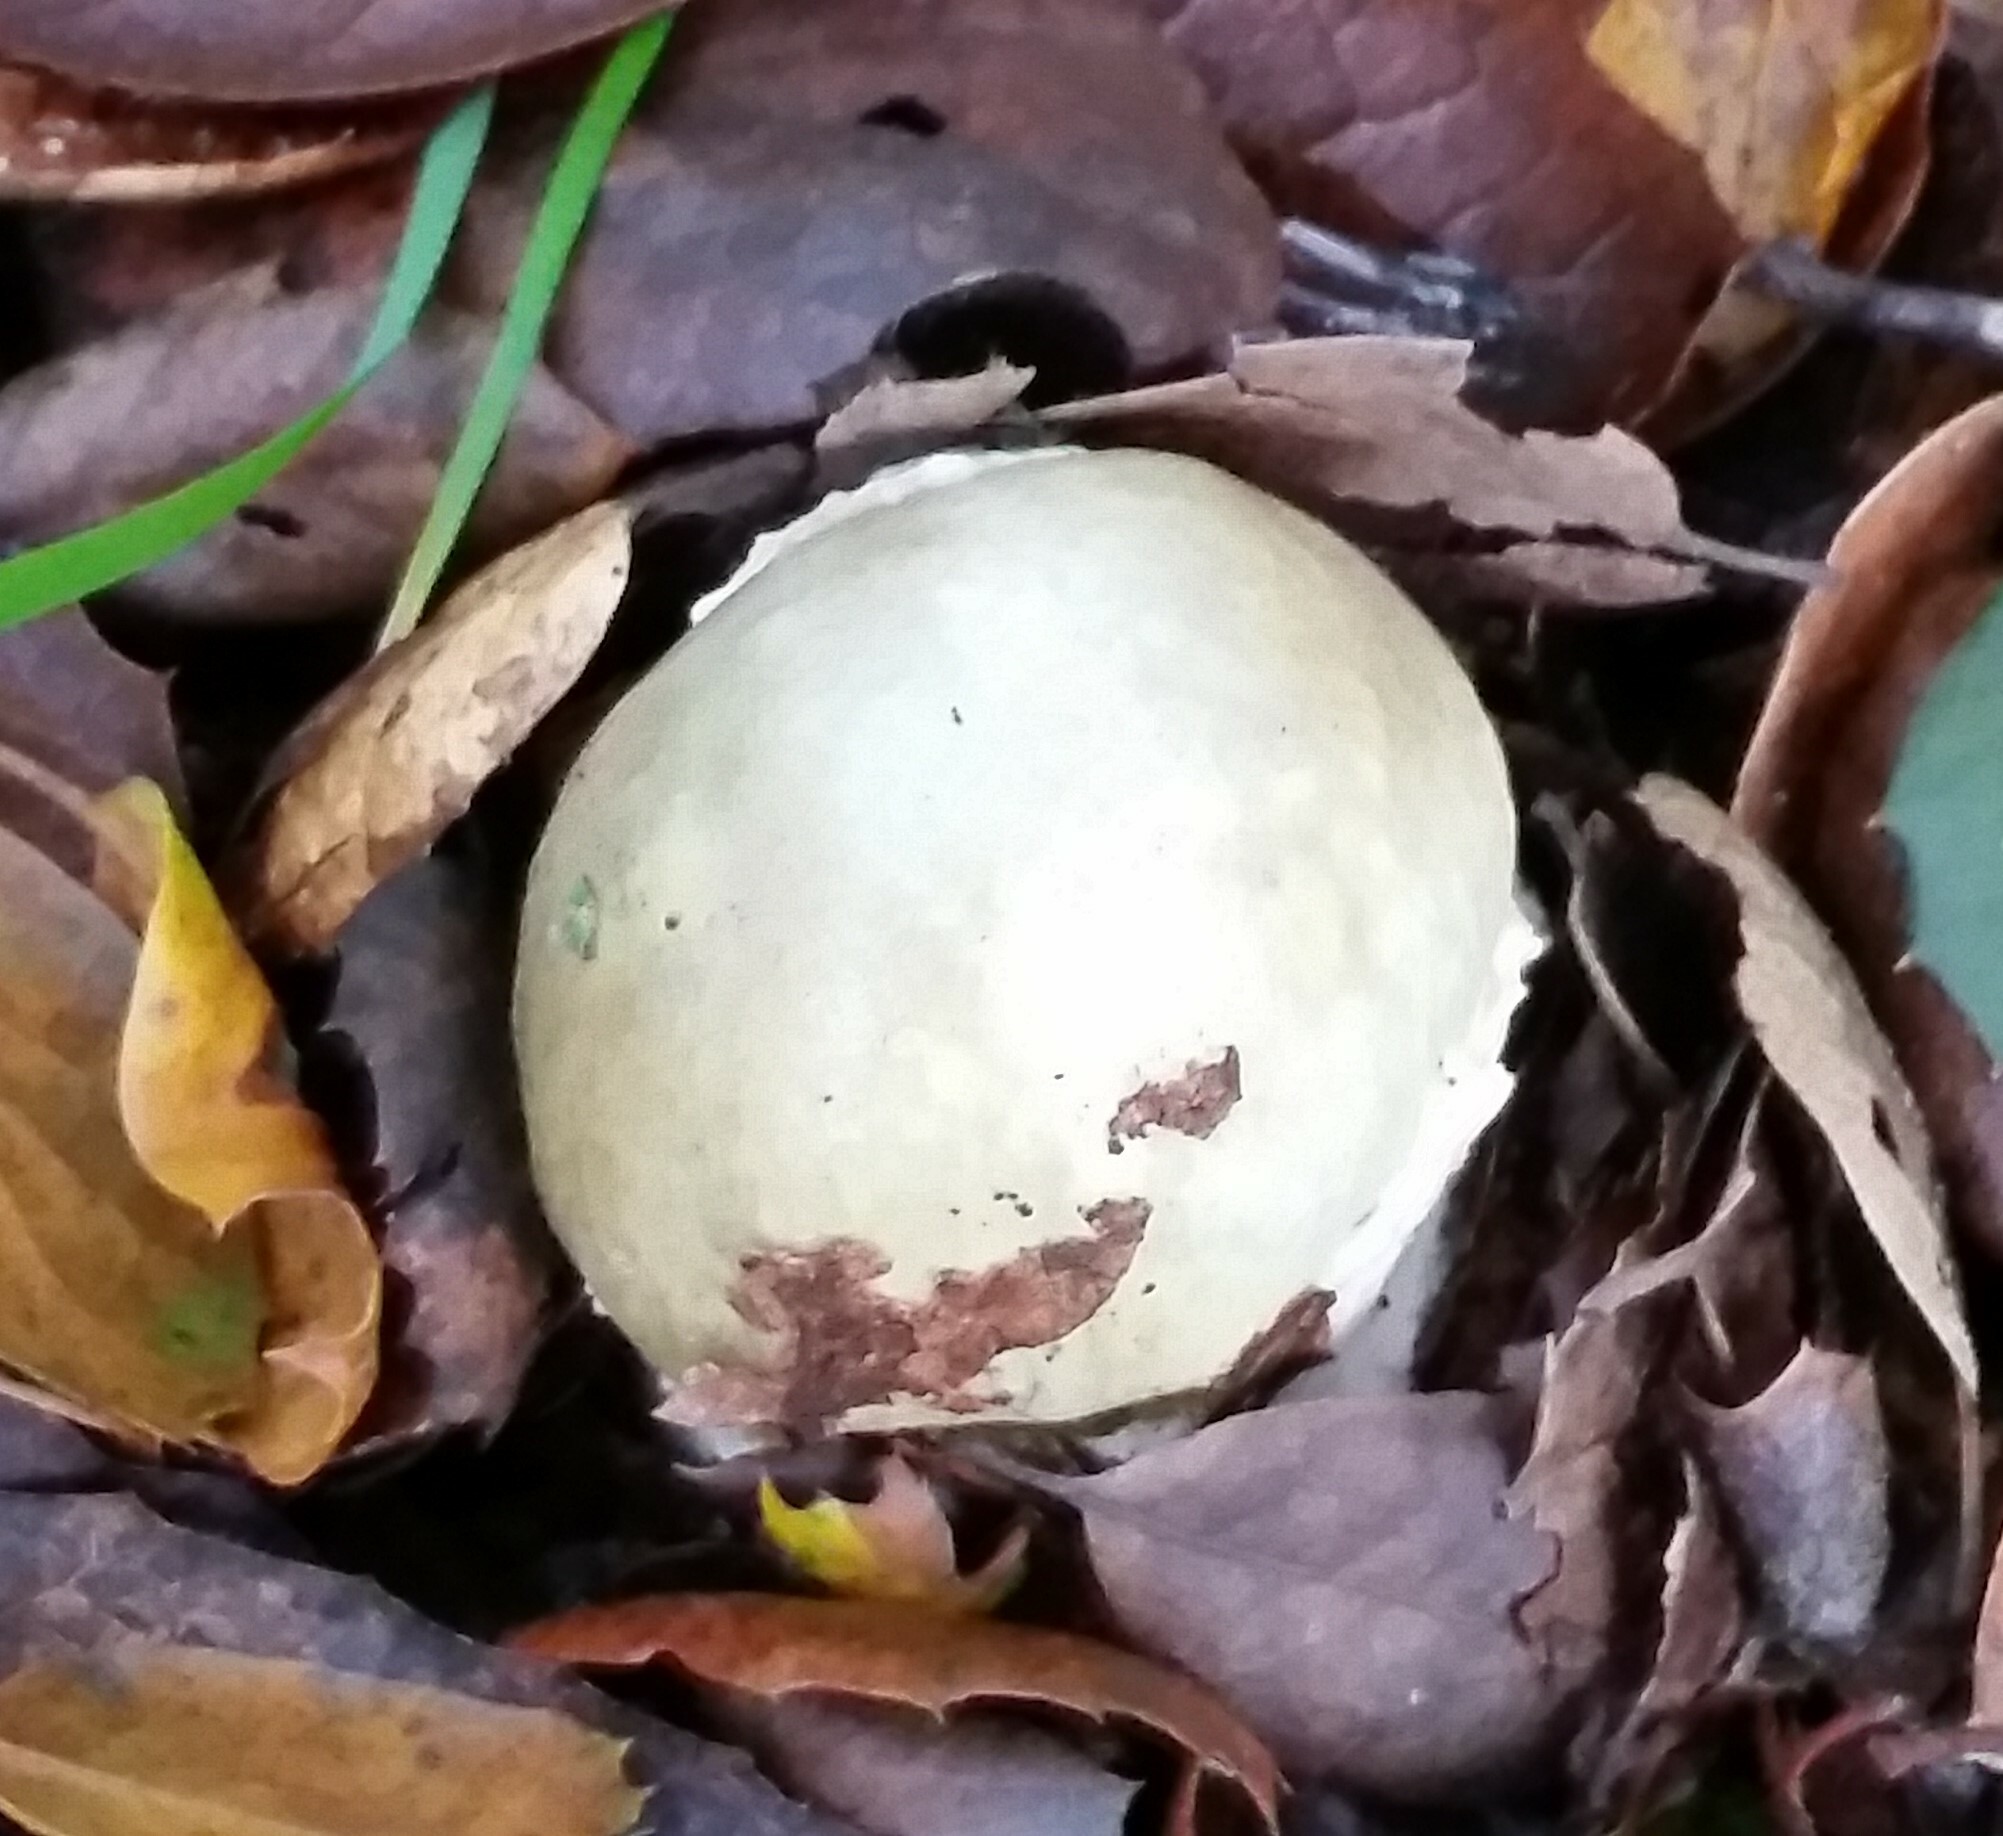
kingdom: Fungi
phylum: Basidiomycota
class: Agaricomycetes
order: Agaricales
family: Amanitaceae
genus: Amanita
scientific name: Amanita phalloides
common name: Death cap
